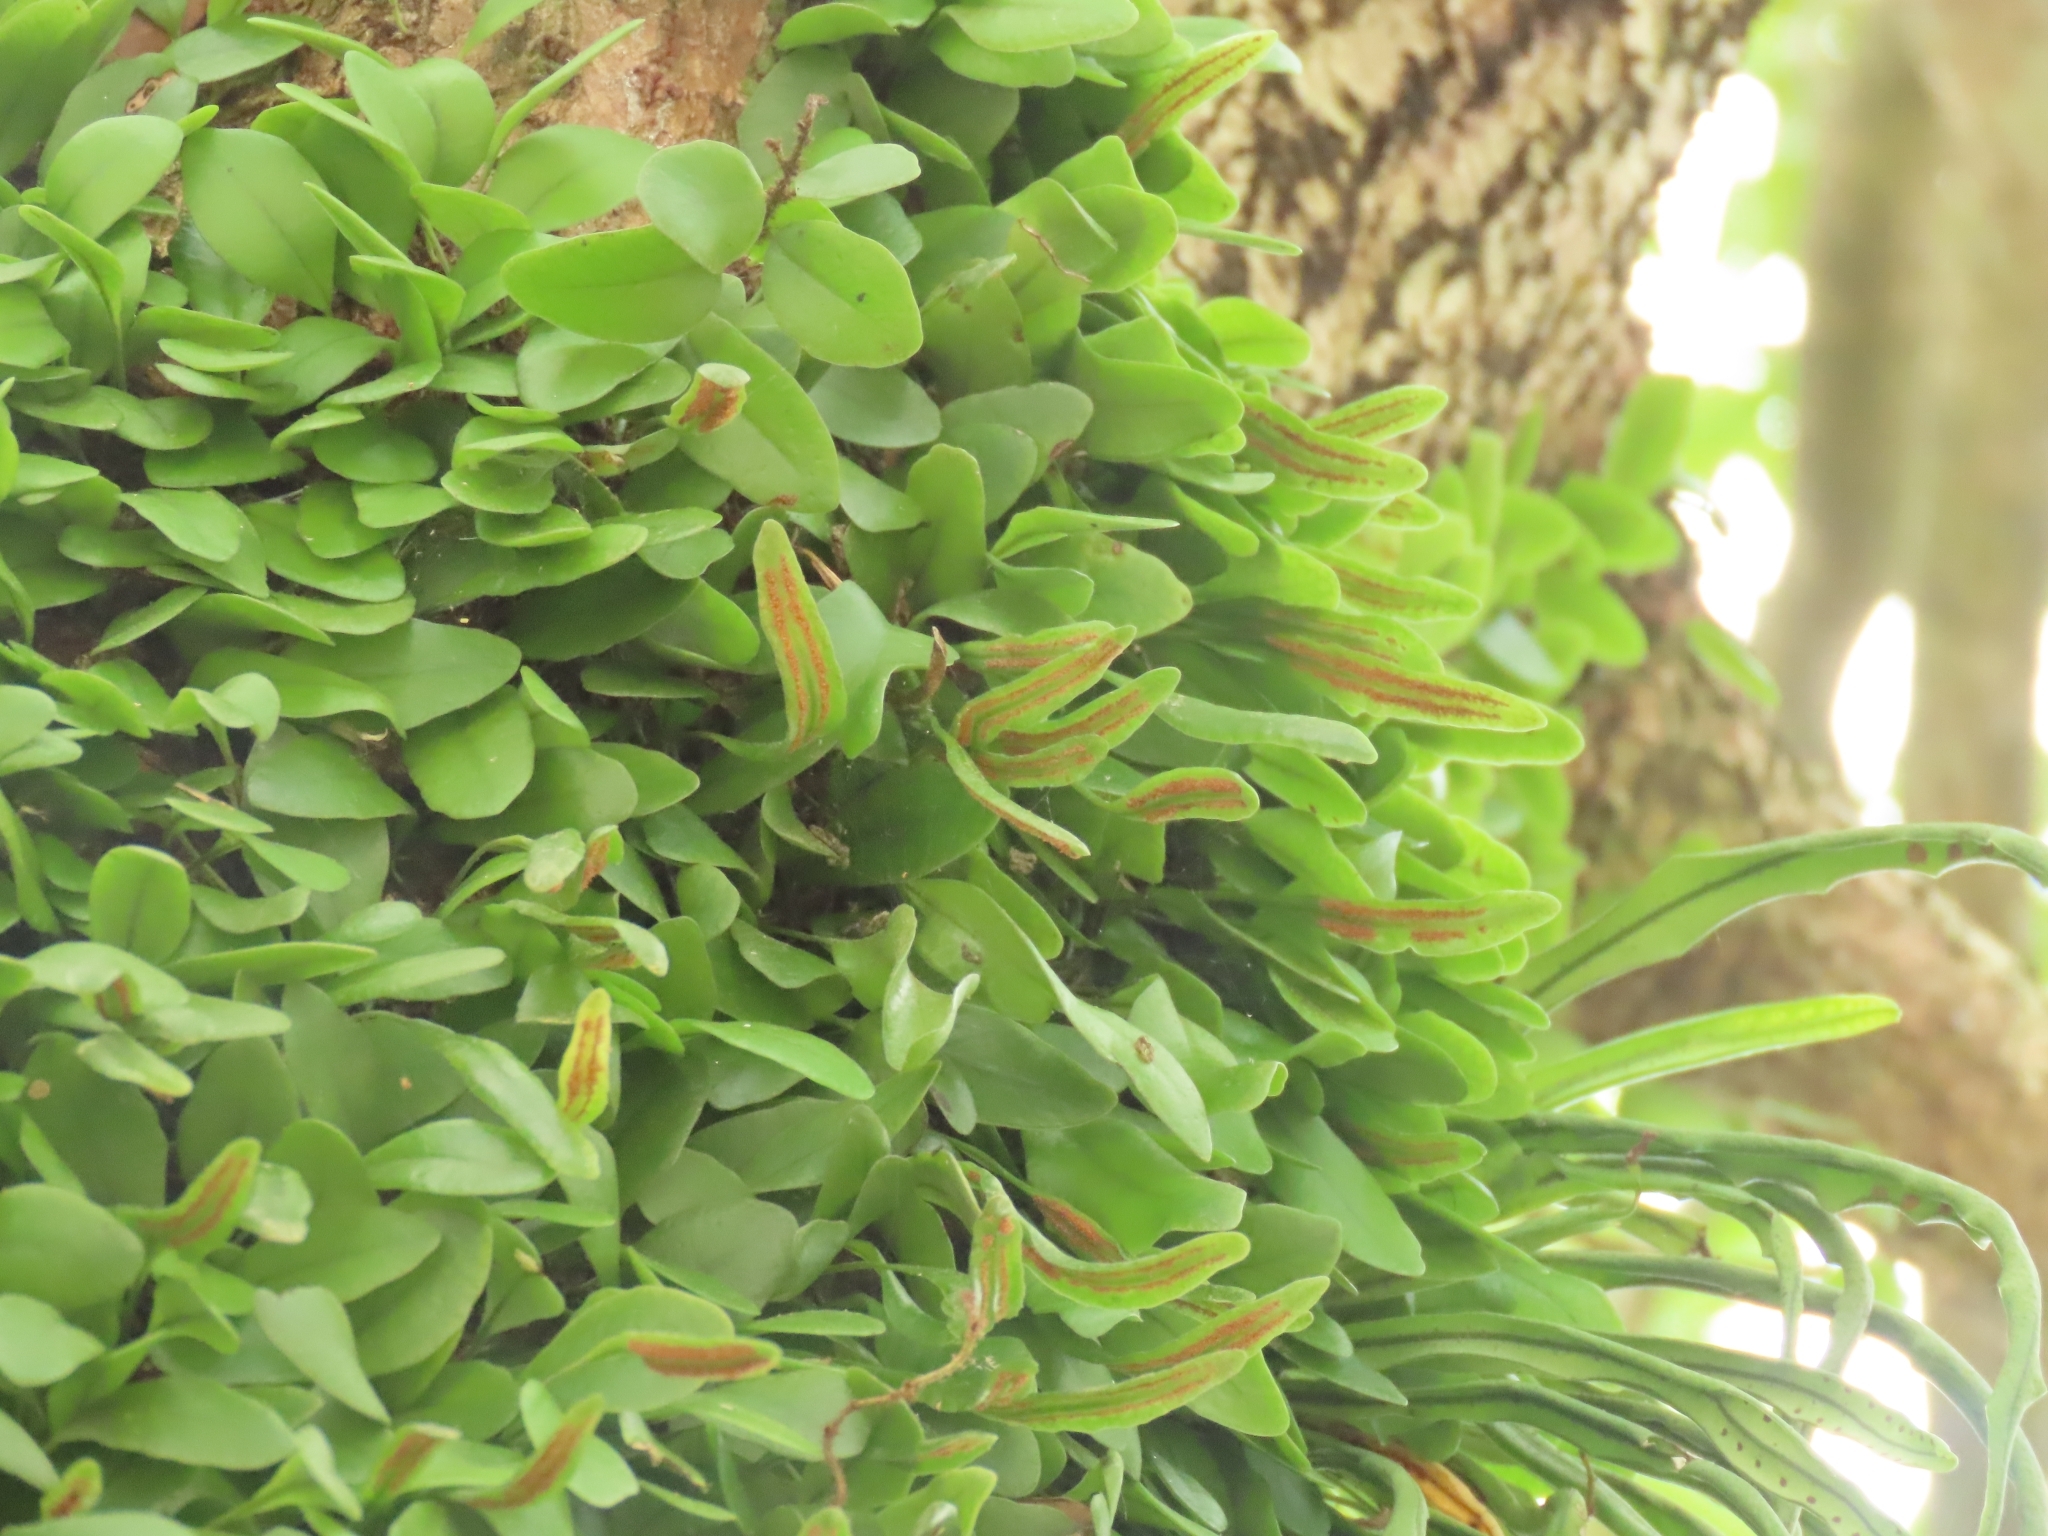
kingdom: Plantae
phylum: Tracheophyta
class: Polypodiopsida
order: Polypodiales
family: Polypodiaceae
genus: Lepisorus
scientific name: Lepisorus microphyllus
